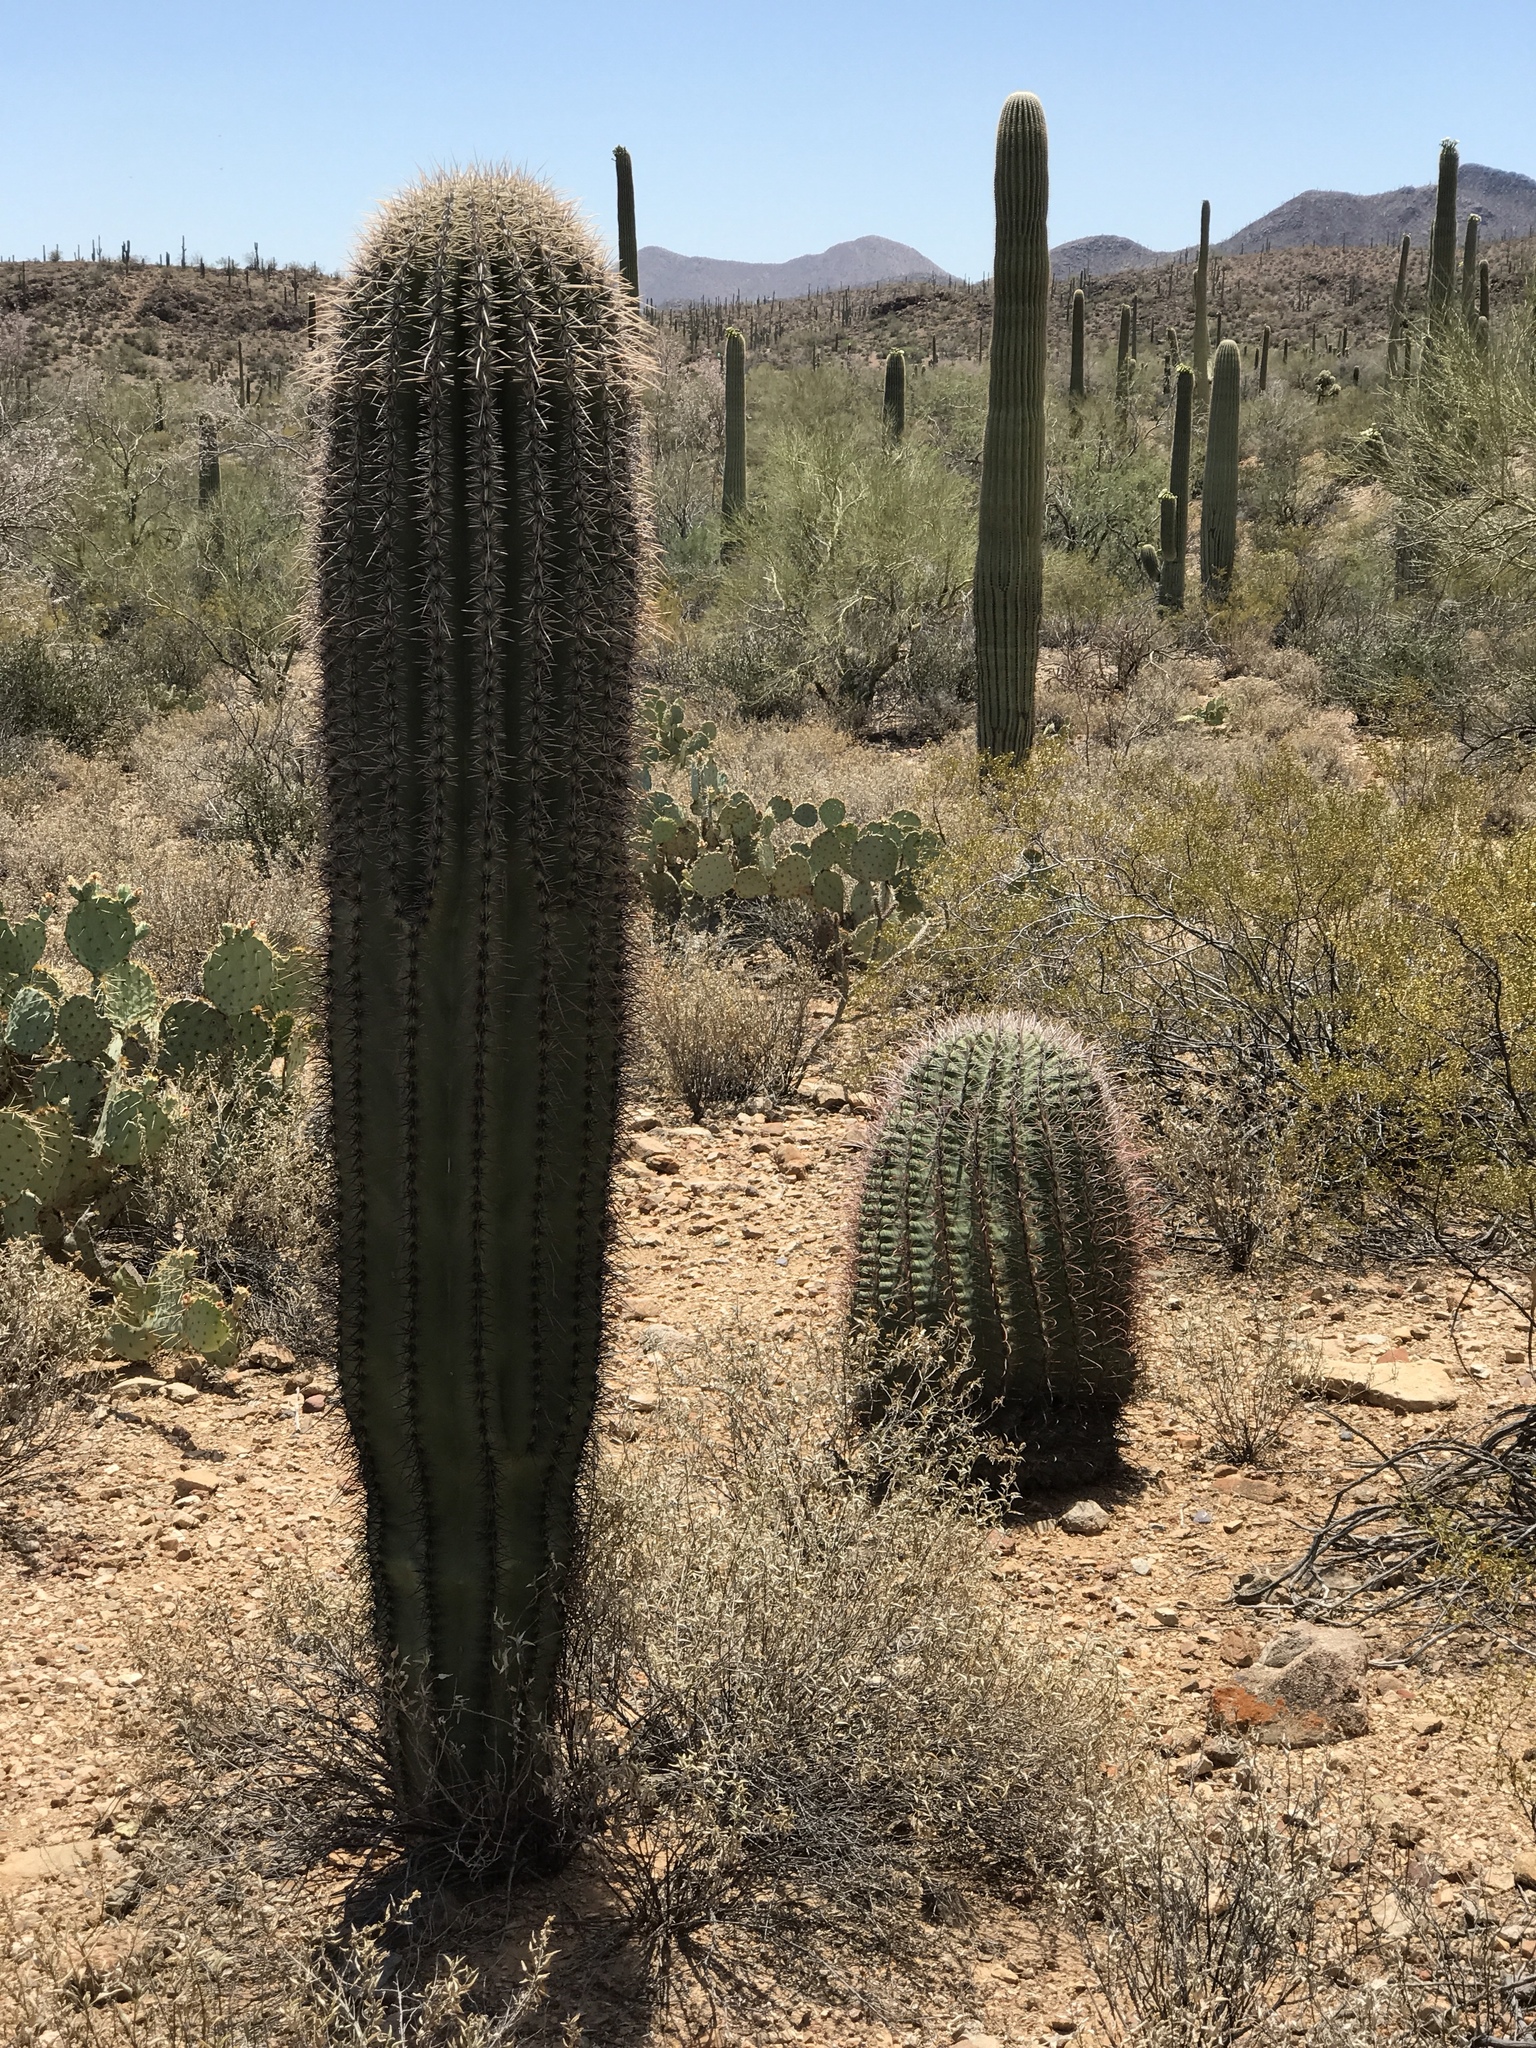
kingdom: Plantae
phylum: Tracheophyta
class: Magnoliopsida
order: Caryophyllales
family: Cactaceae
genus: Ferocactus
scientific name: Ferocactus wislizeni
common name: Candy barrel cactus
